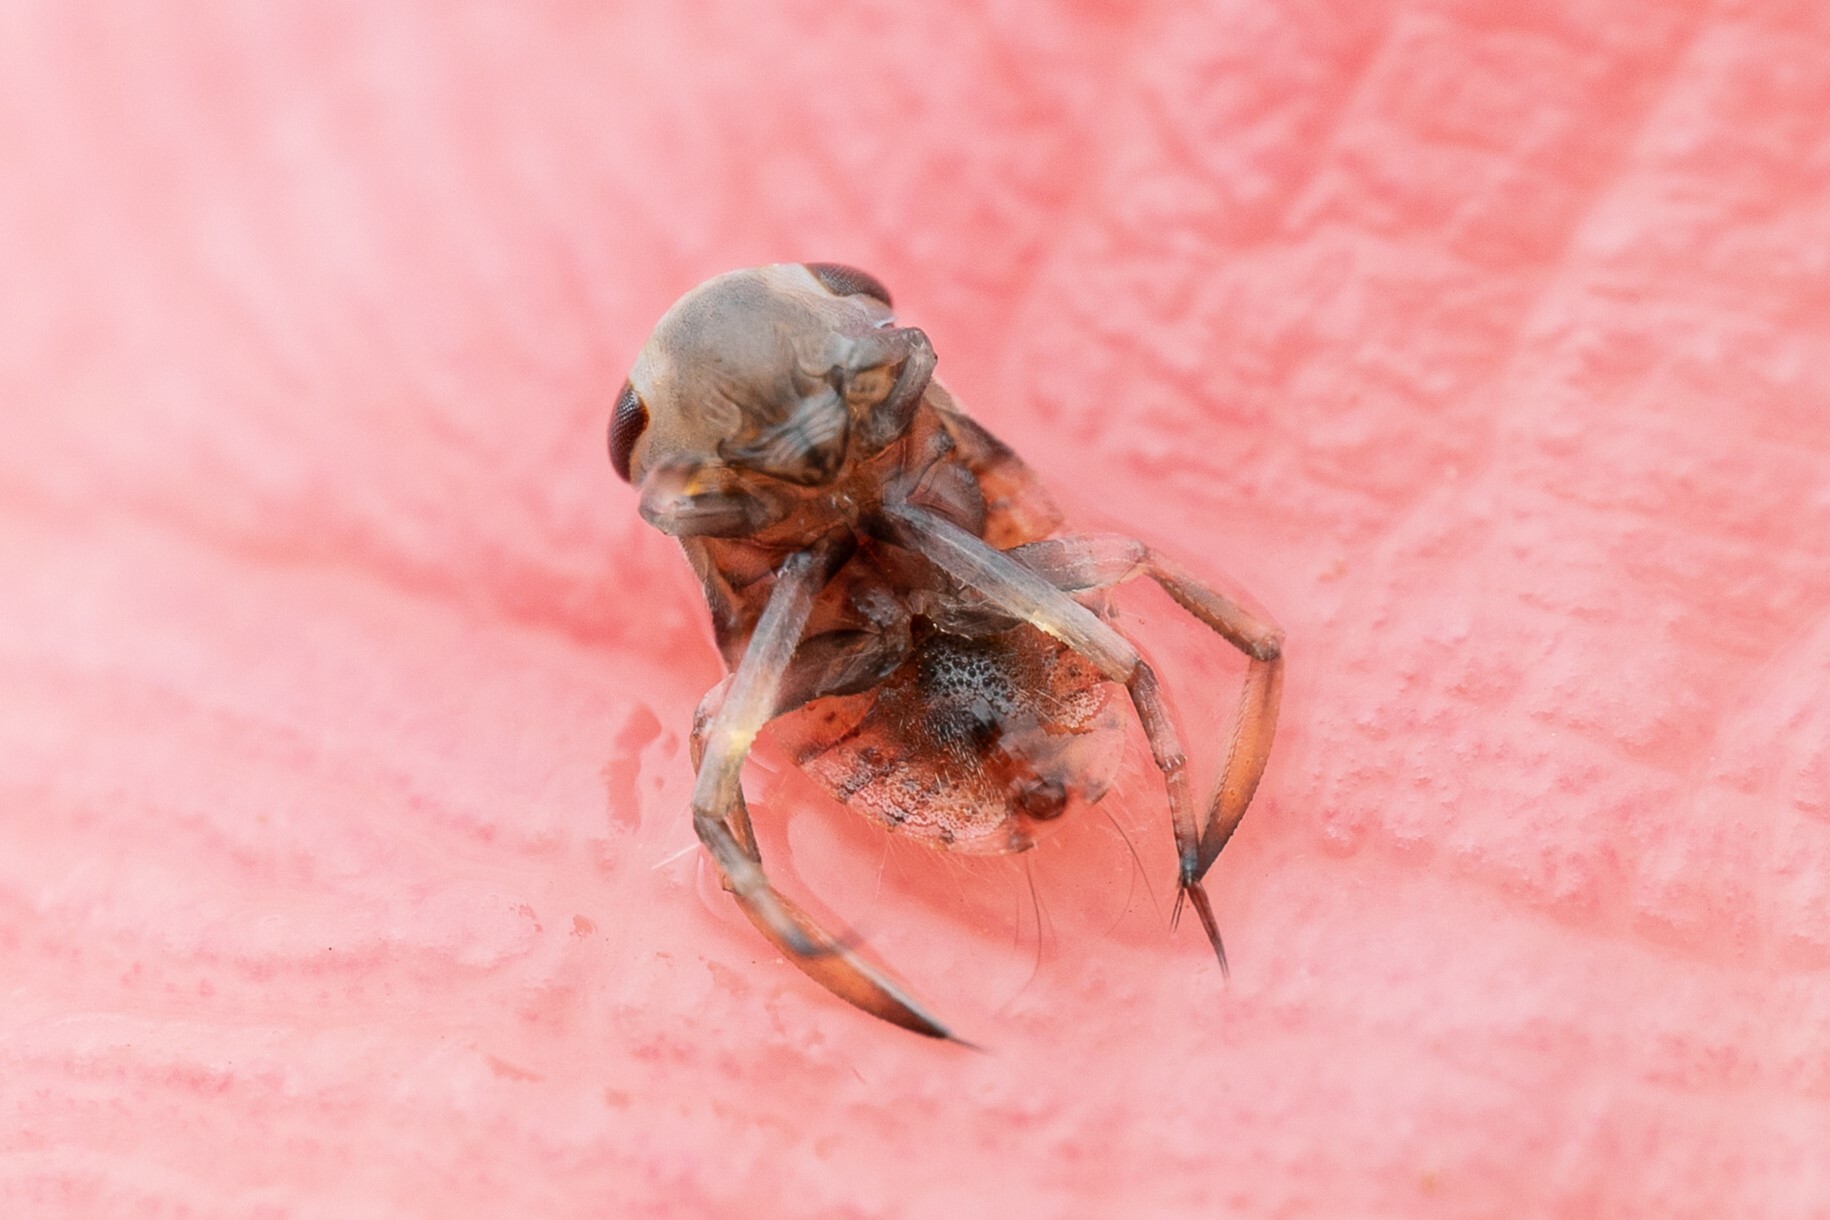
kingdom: Animalia
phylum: Arthropoda
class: Insecta
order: Hemiptera
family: Corixidae
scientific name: Corixidae
